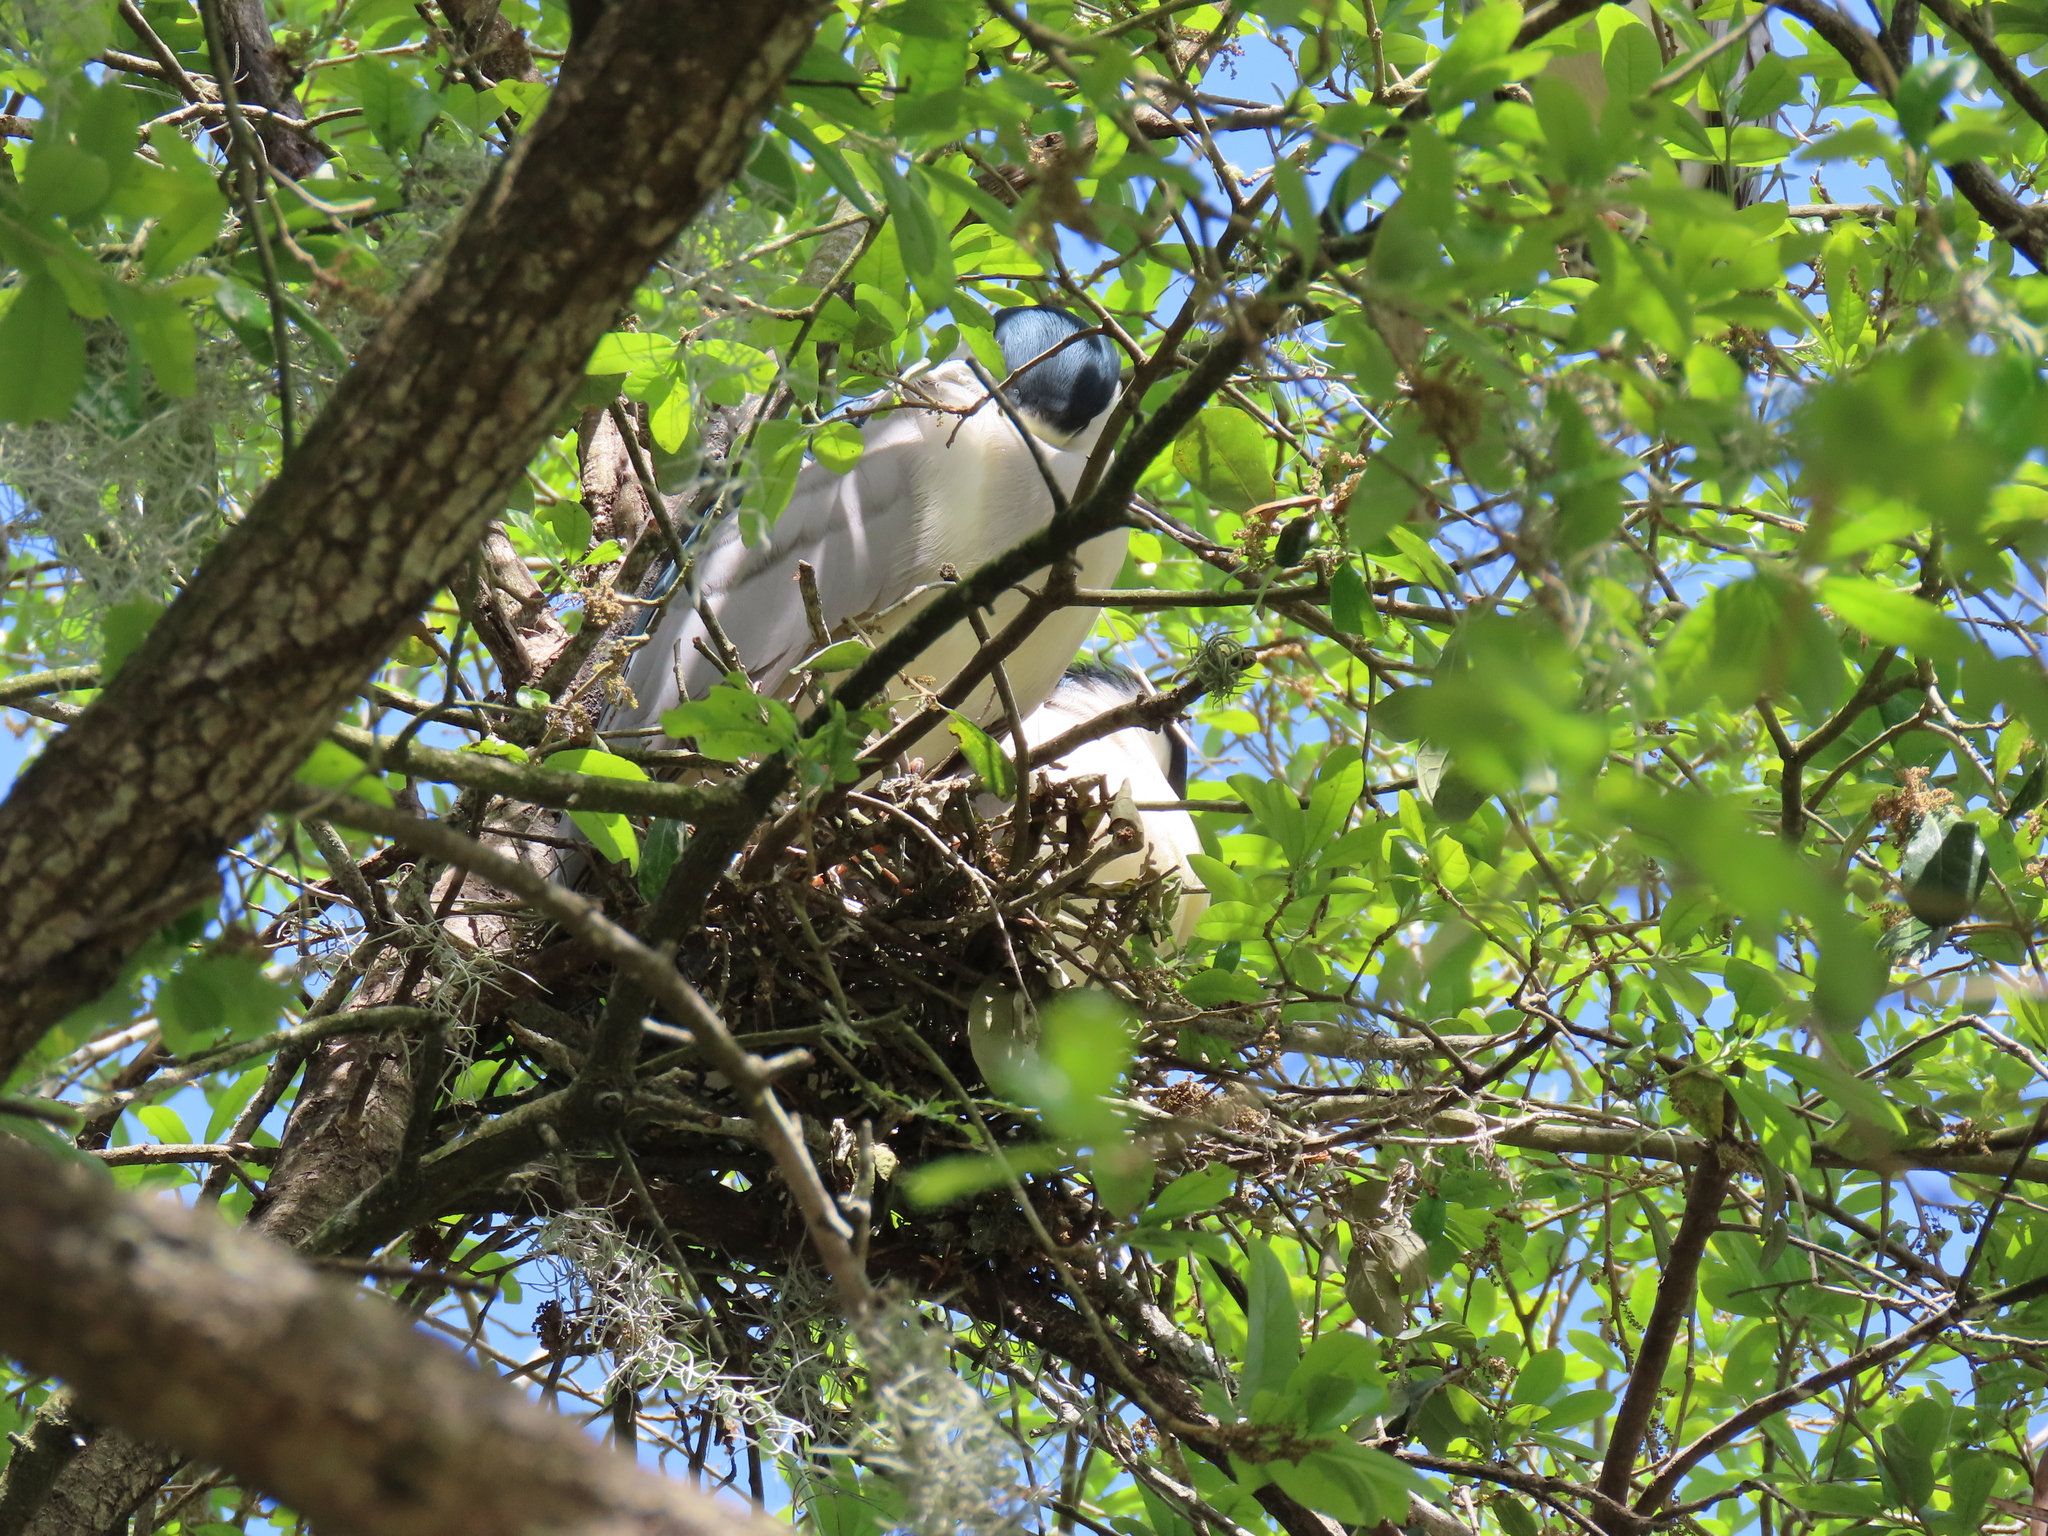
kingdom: Animalia
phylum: Chordata
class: Aves
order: Pelecaniformes
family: Ardeidae
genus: Nycticorax
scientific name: Nycticorax nycticorax
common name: Black-crowned night heron
